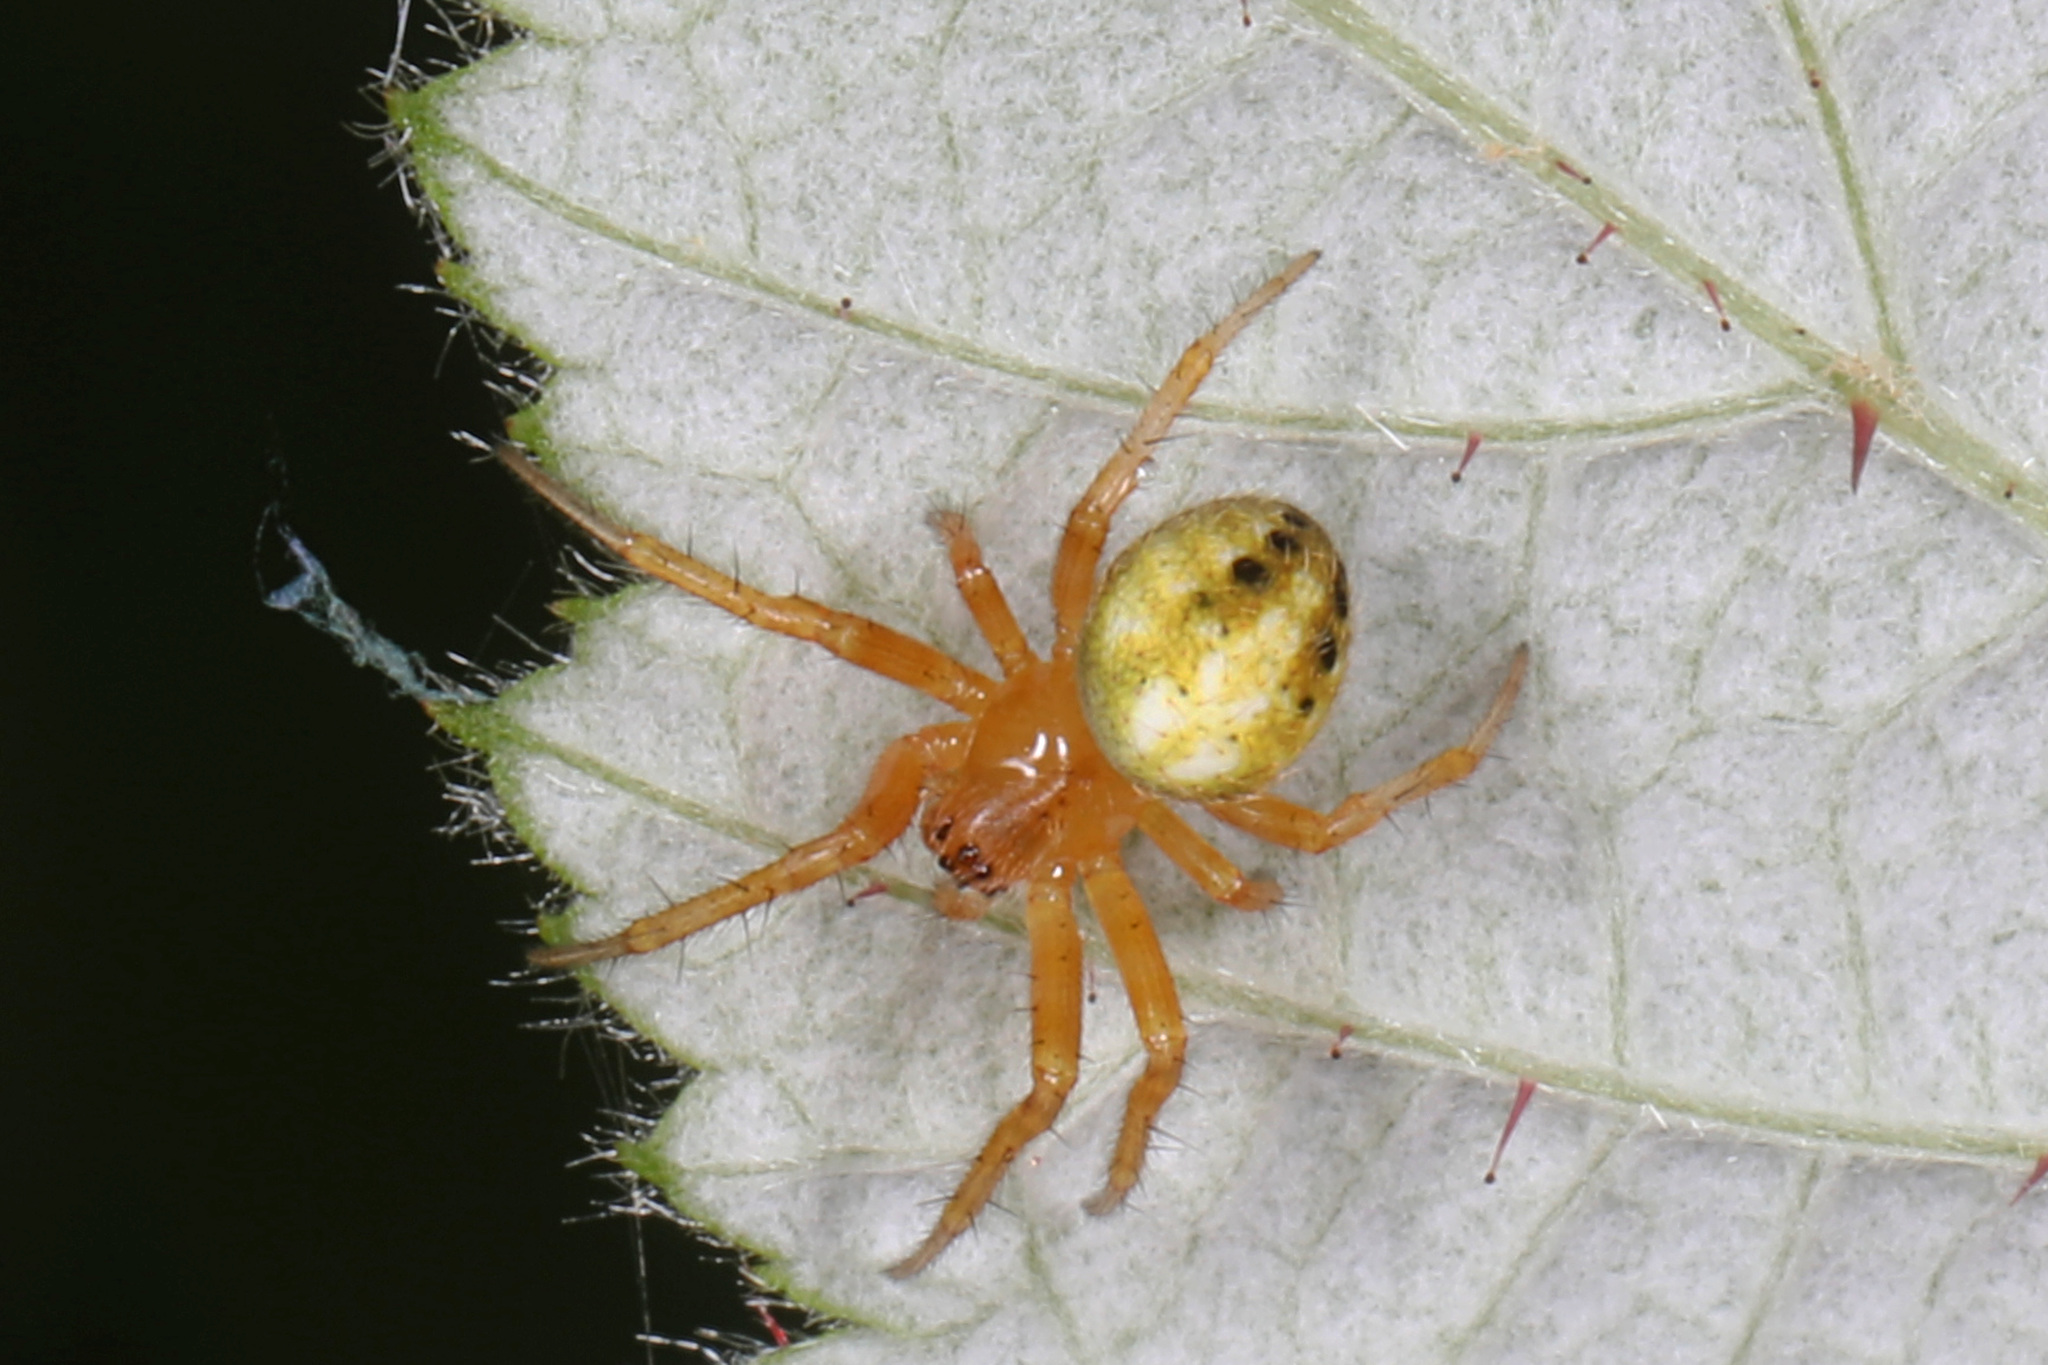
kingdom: Animalia
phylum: Arthropoda
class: Arachnida
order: Araneae
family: Araneidae
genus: Neoscona
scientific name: Neoscona arabesca
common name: Orb weavers
